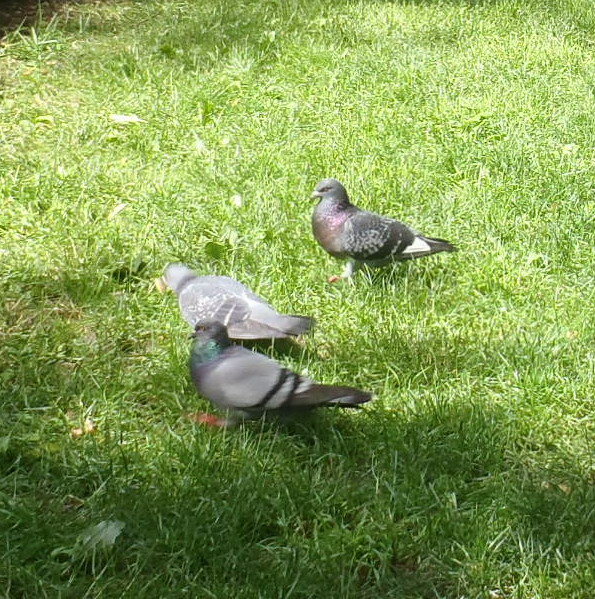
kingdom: Animalia
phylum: Chordata
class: Aves
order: Columbiformes
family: Columbidae
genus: Columba
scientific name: Columba livia
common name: Rock pigeon
